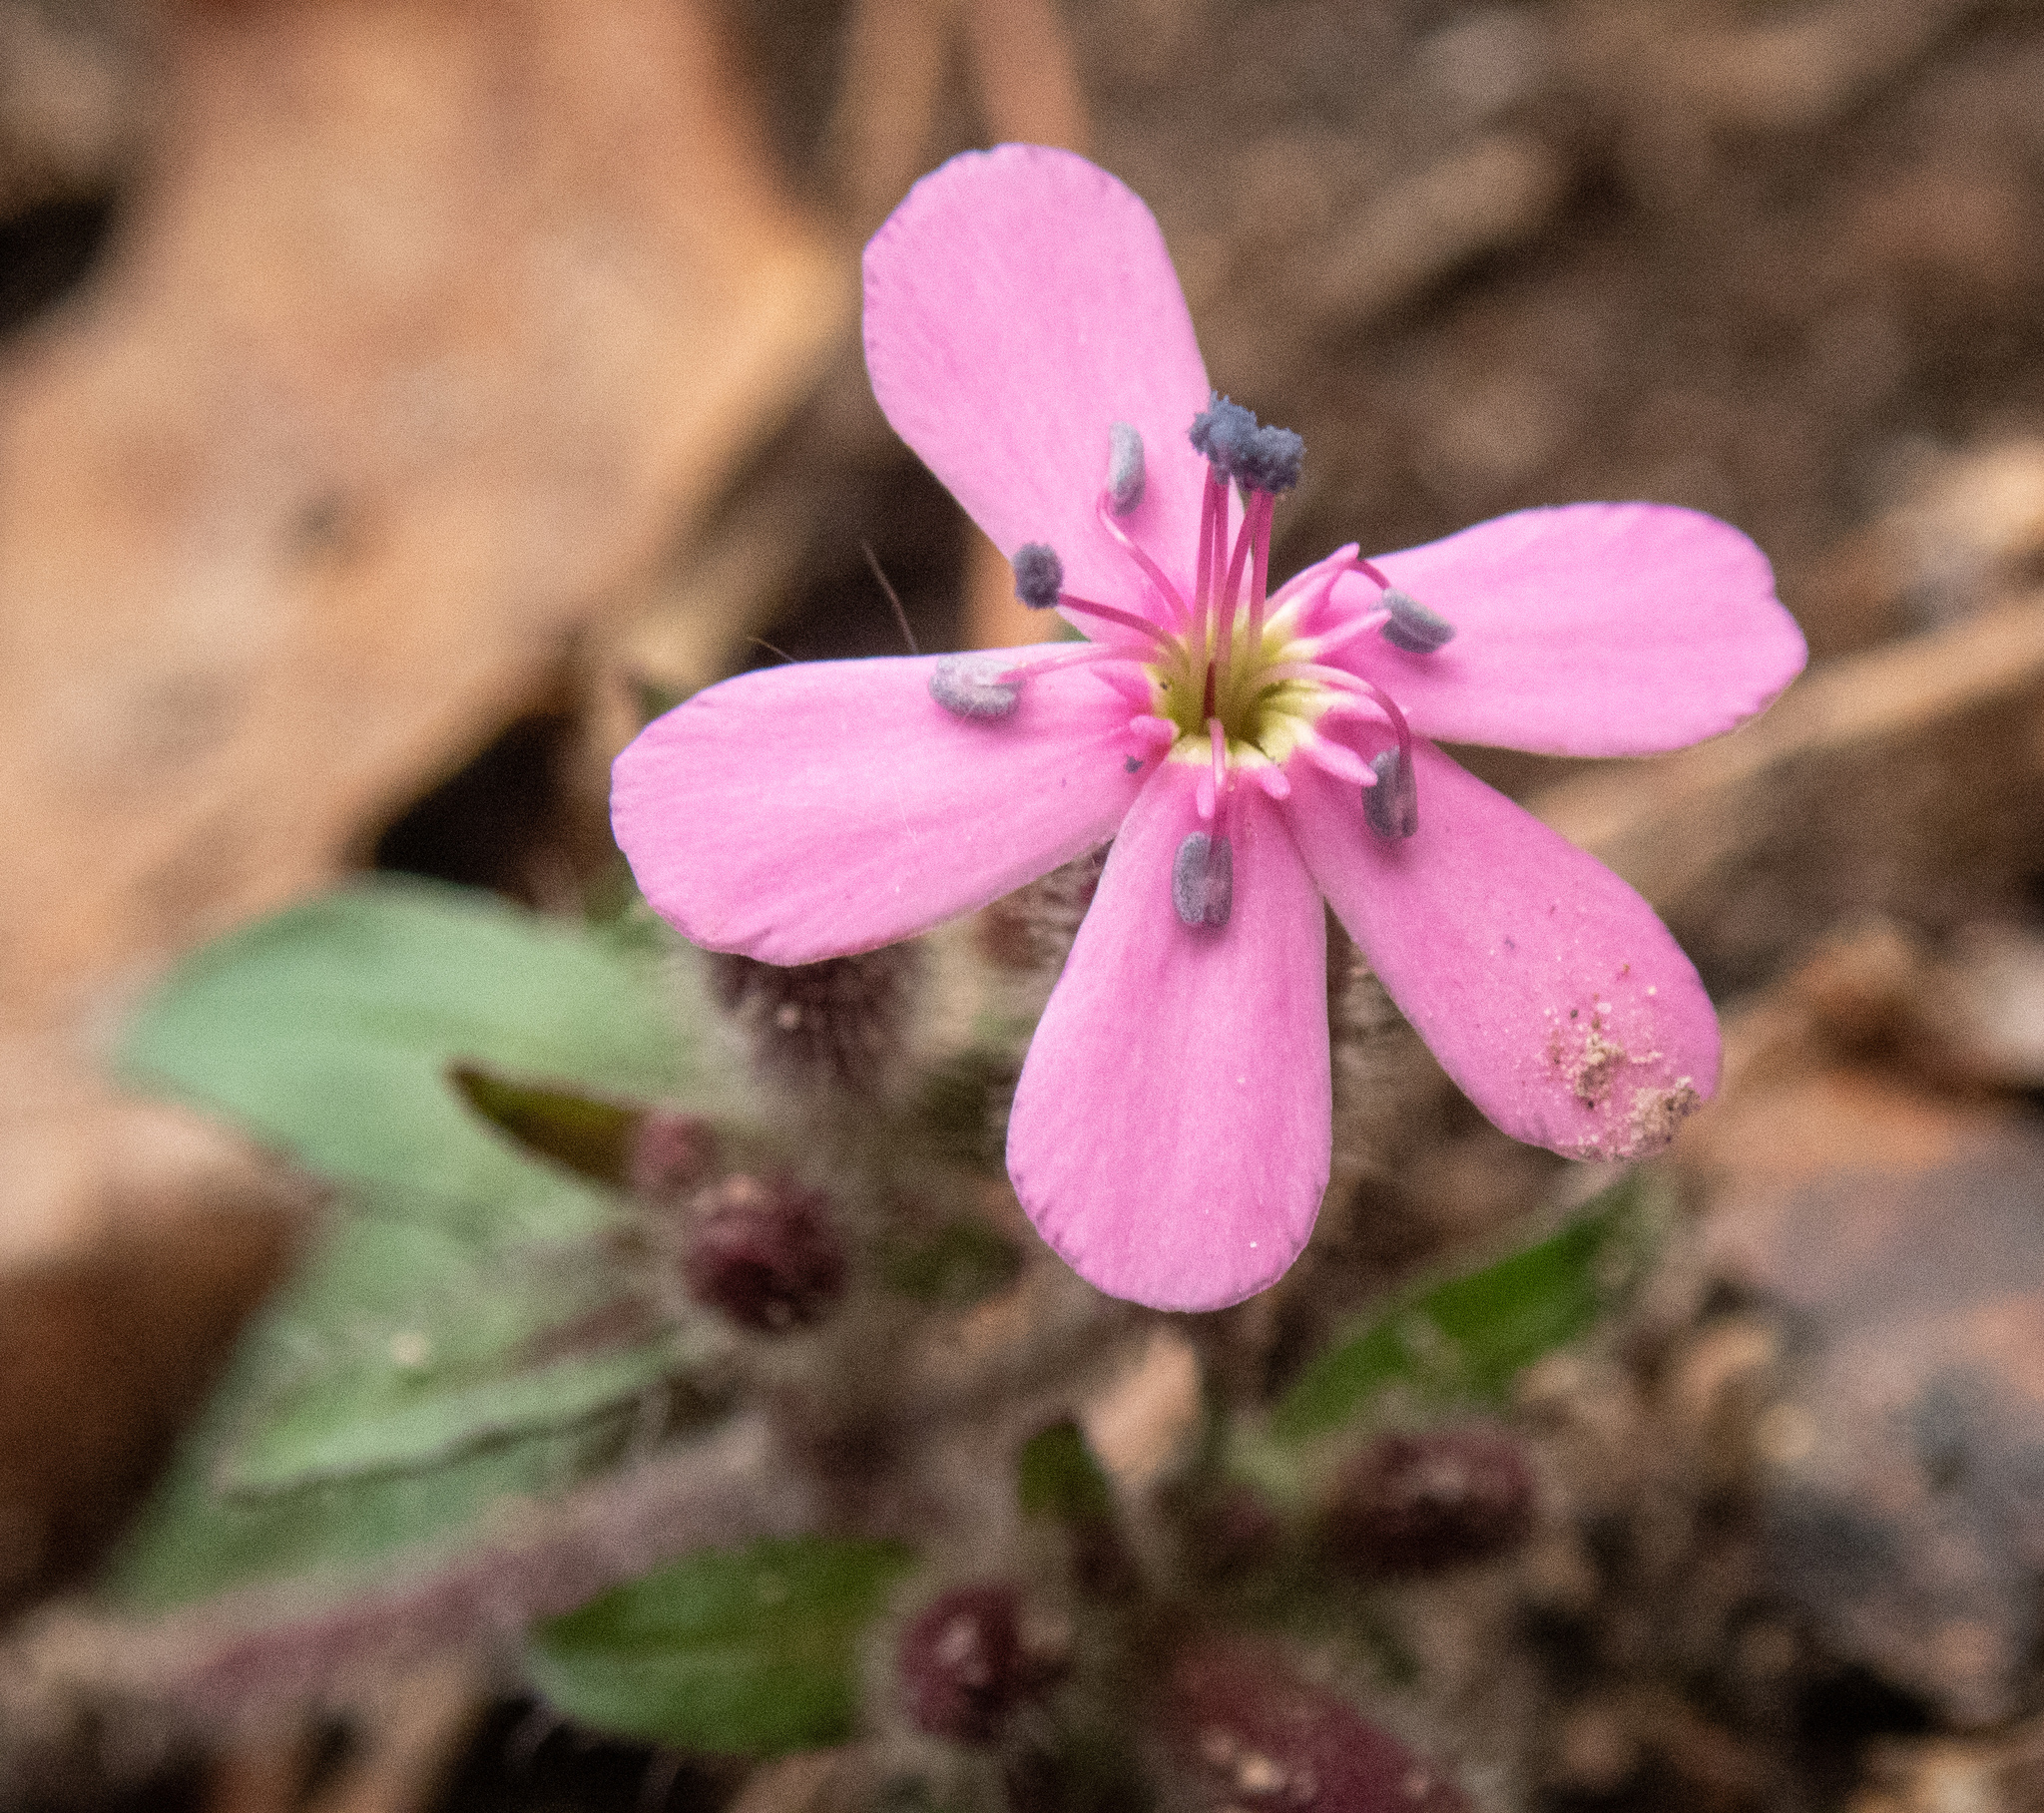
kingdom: Plantae
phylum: Tracheophyta
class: Magnoliopsida
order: Caryophyllales
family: Caryophyllaceae
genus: Saponaria
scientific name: Saponaria ocymoides
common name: Rock soapwort
